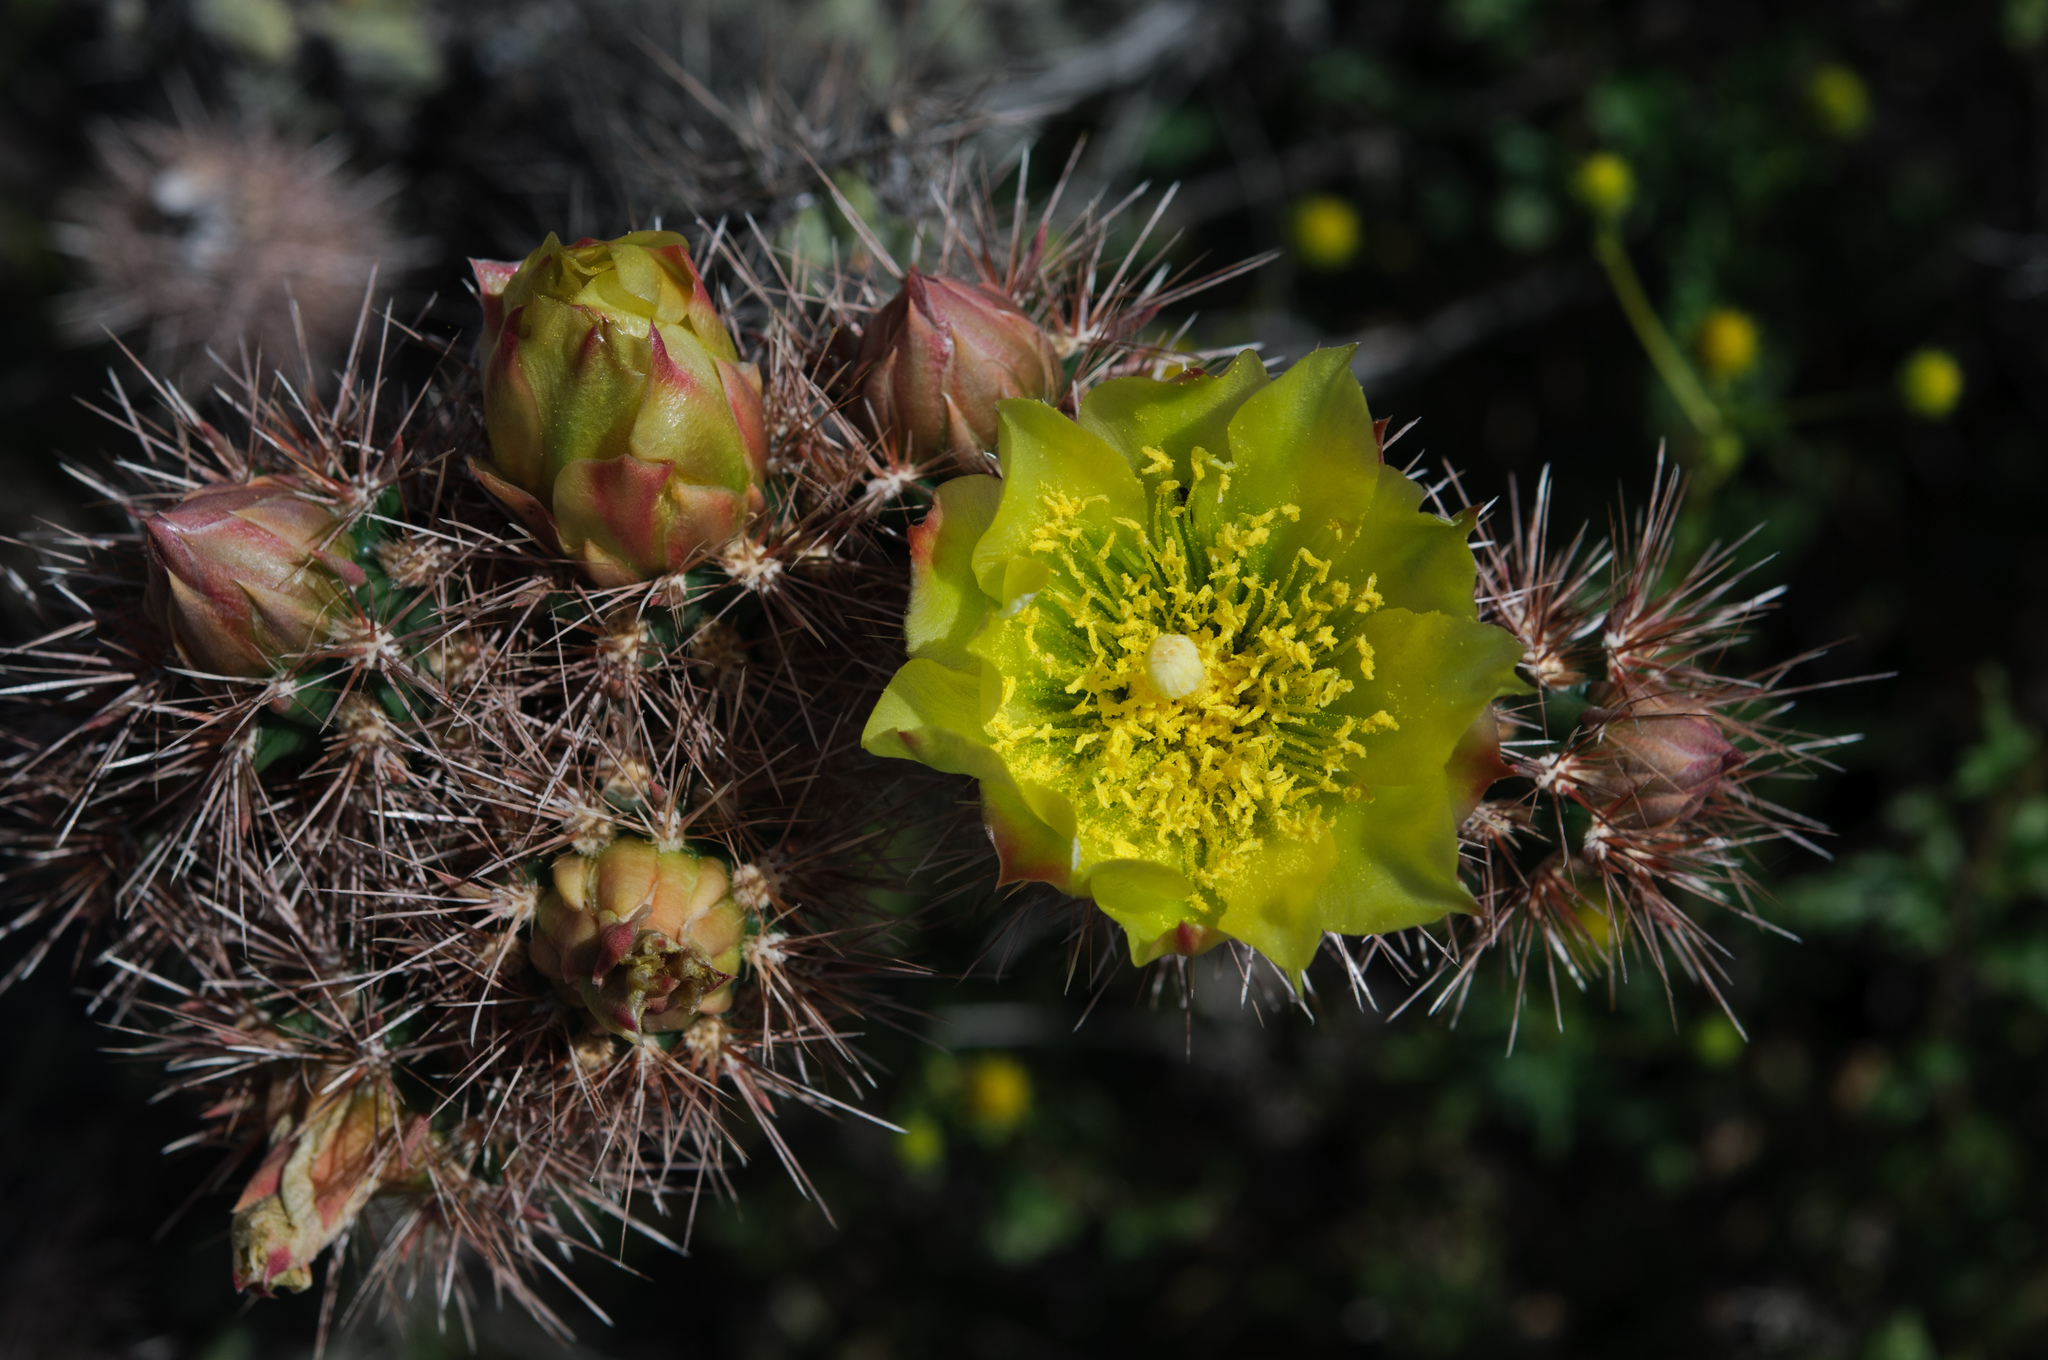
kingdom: Plantae
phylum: Tracheophyta
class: Magnoliopsida
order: Caryophyllales
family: Cactaceae
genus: Cylindropuntia
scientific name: Cylindropuntia ganderi
